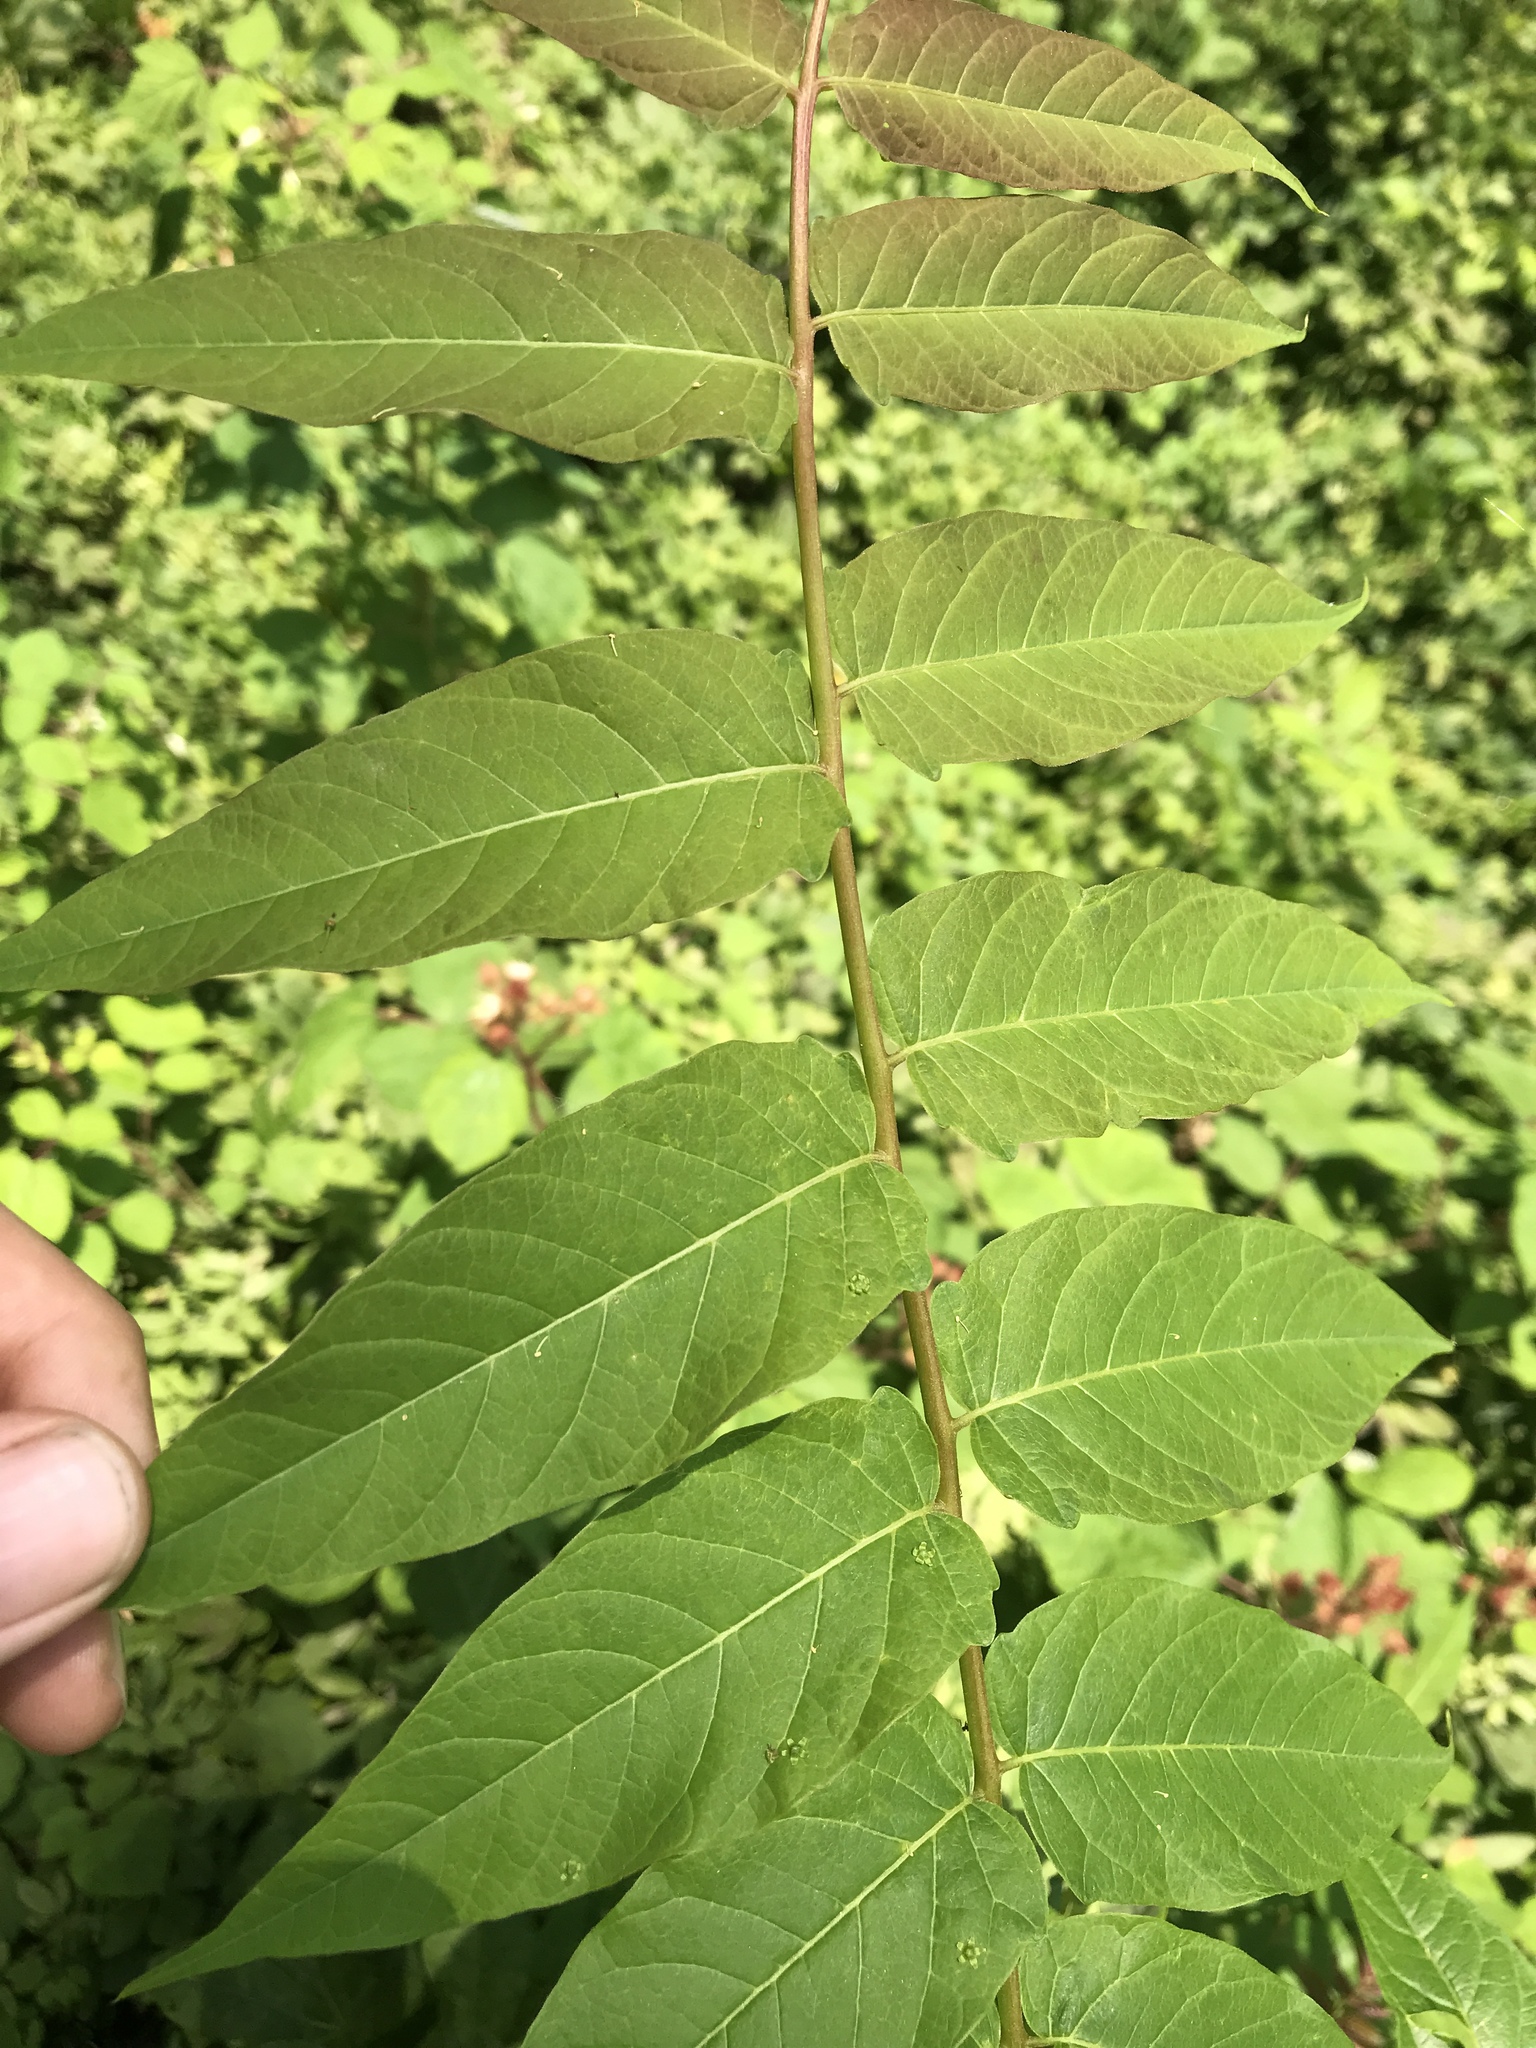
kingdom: Plantae
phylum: Tracheophyta
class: Magnoliopsida
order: Sapindales
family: Simaroubaceae
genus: Ailanthus
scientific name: Ailanthus altissima
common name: Tree-of-heaven
